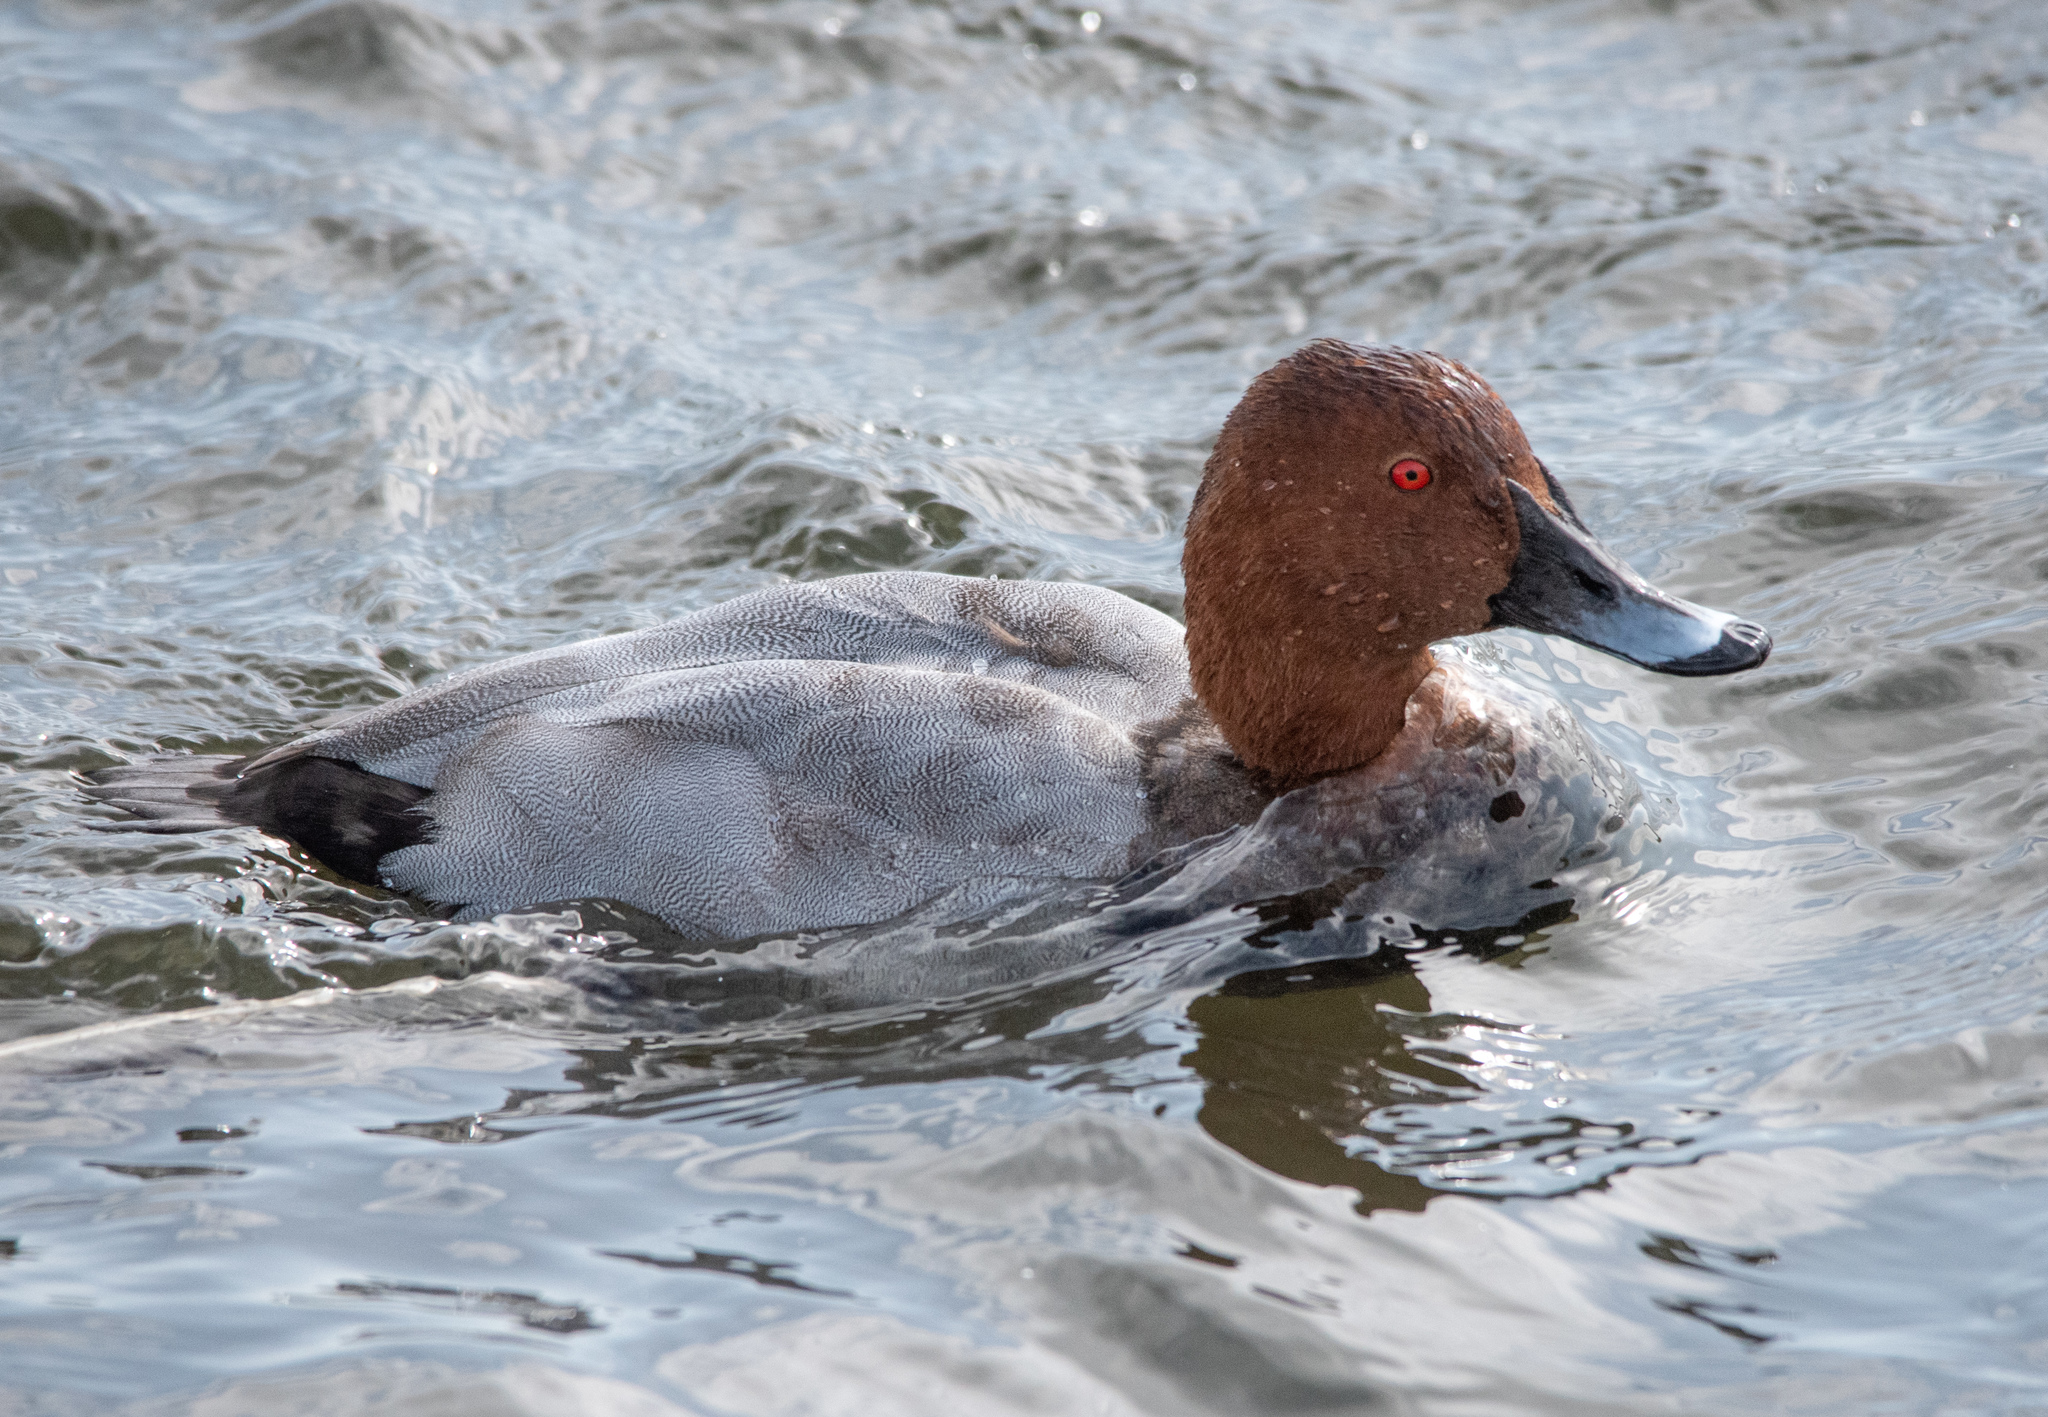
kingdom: Animalia
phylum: Chordata
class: Aves
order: Anseriformes
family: Anatidae
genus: Aythya
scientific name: Aythya ferina
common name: Common pochard
